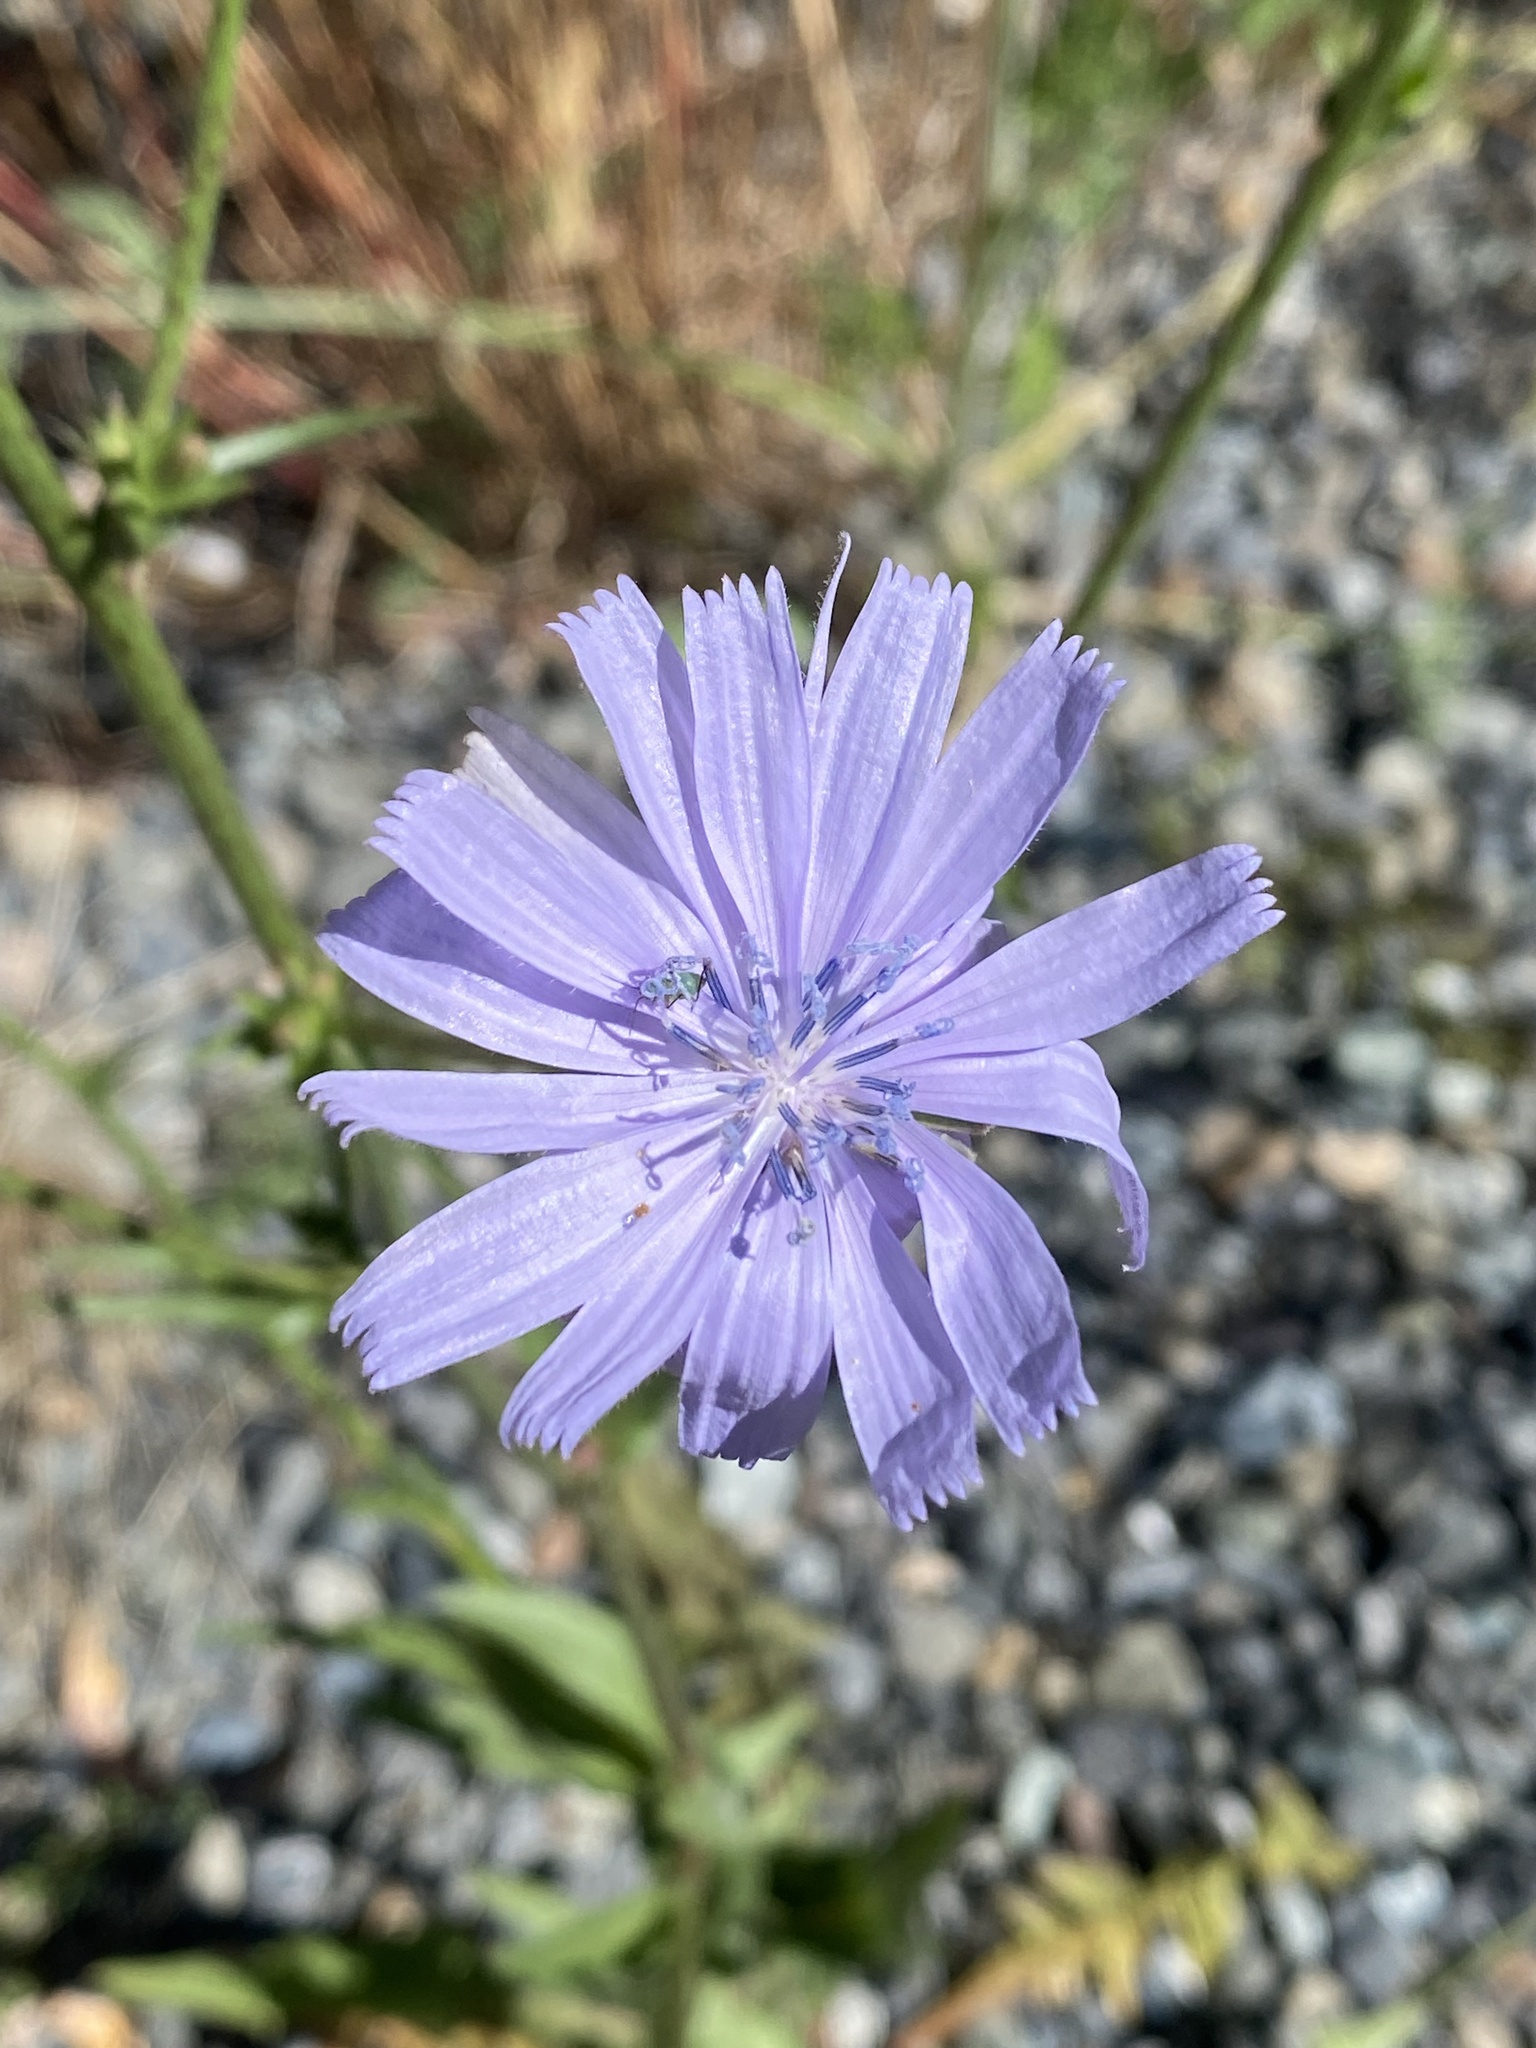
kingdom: Plantae
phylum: Tracheophyta
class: Magnoliopsida
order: Asterales
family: Asteraceae
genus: Cichorium
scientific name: Cichorium intybus
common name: Chicory
